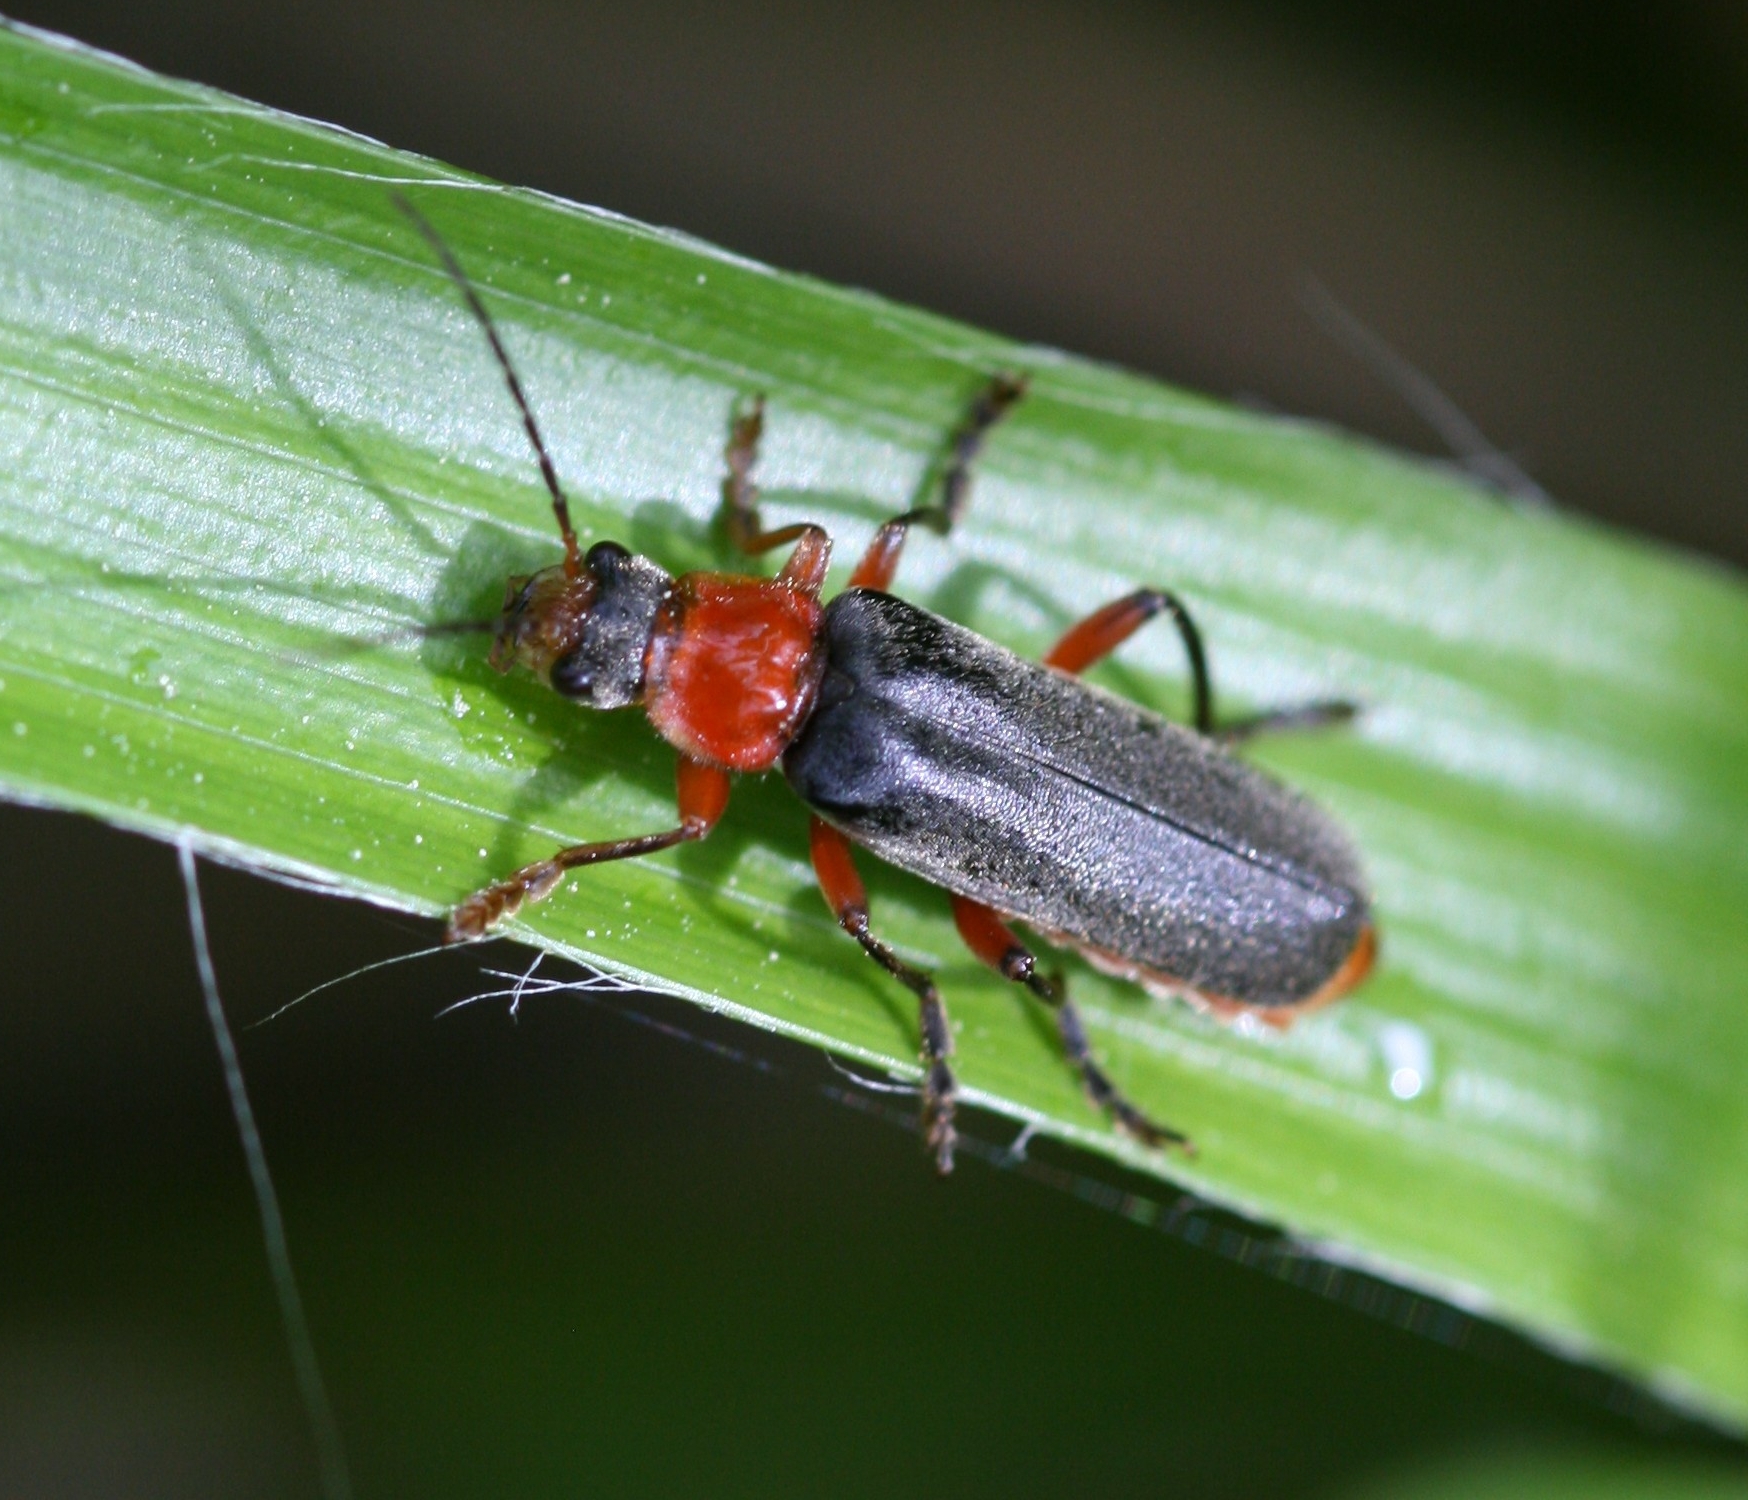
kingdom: Animalia
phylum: Arthropoda
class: Insecta
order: Coleoptera
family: Cantharidae
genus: Cantharis
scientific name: Cantharis pellucida
